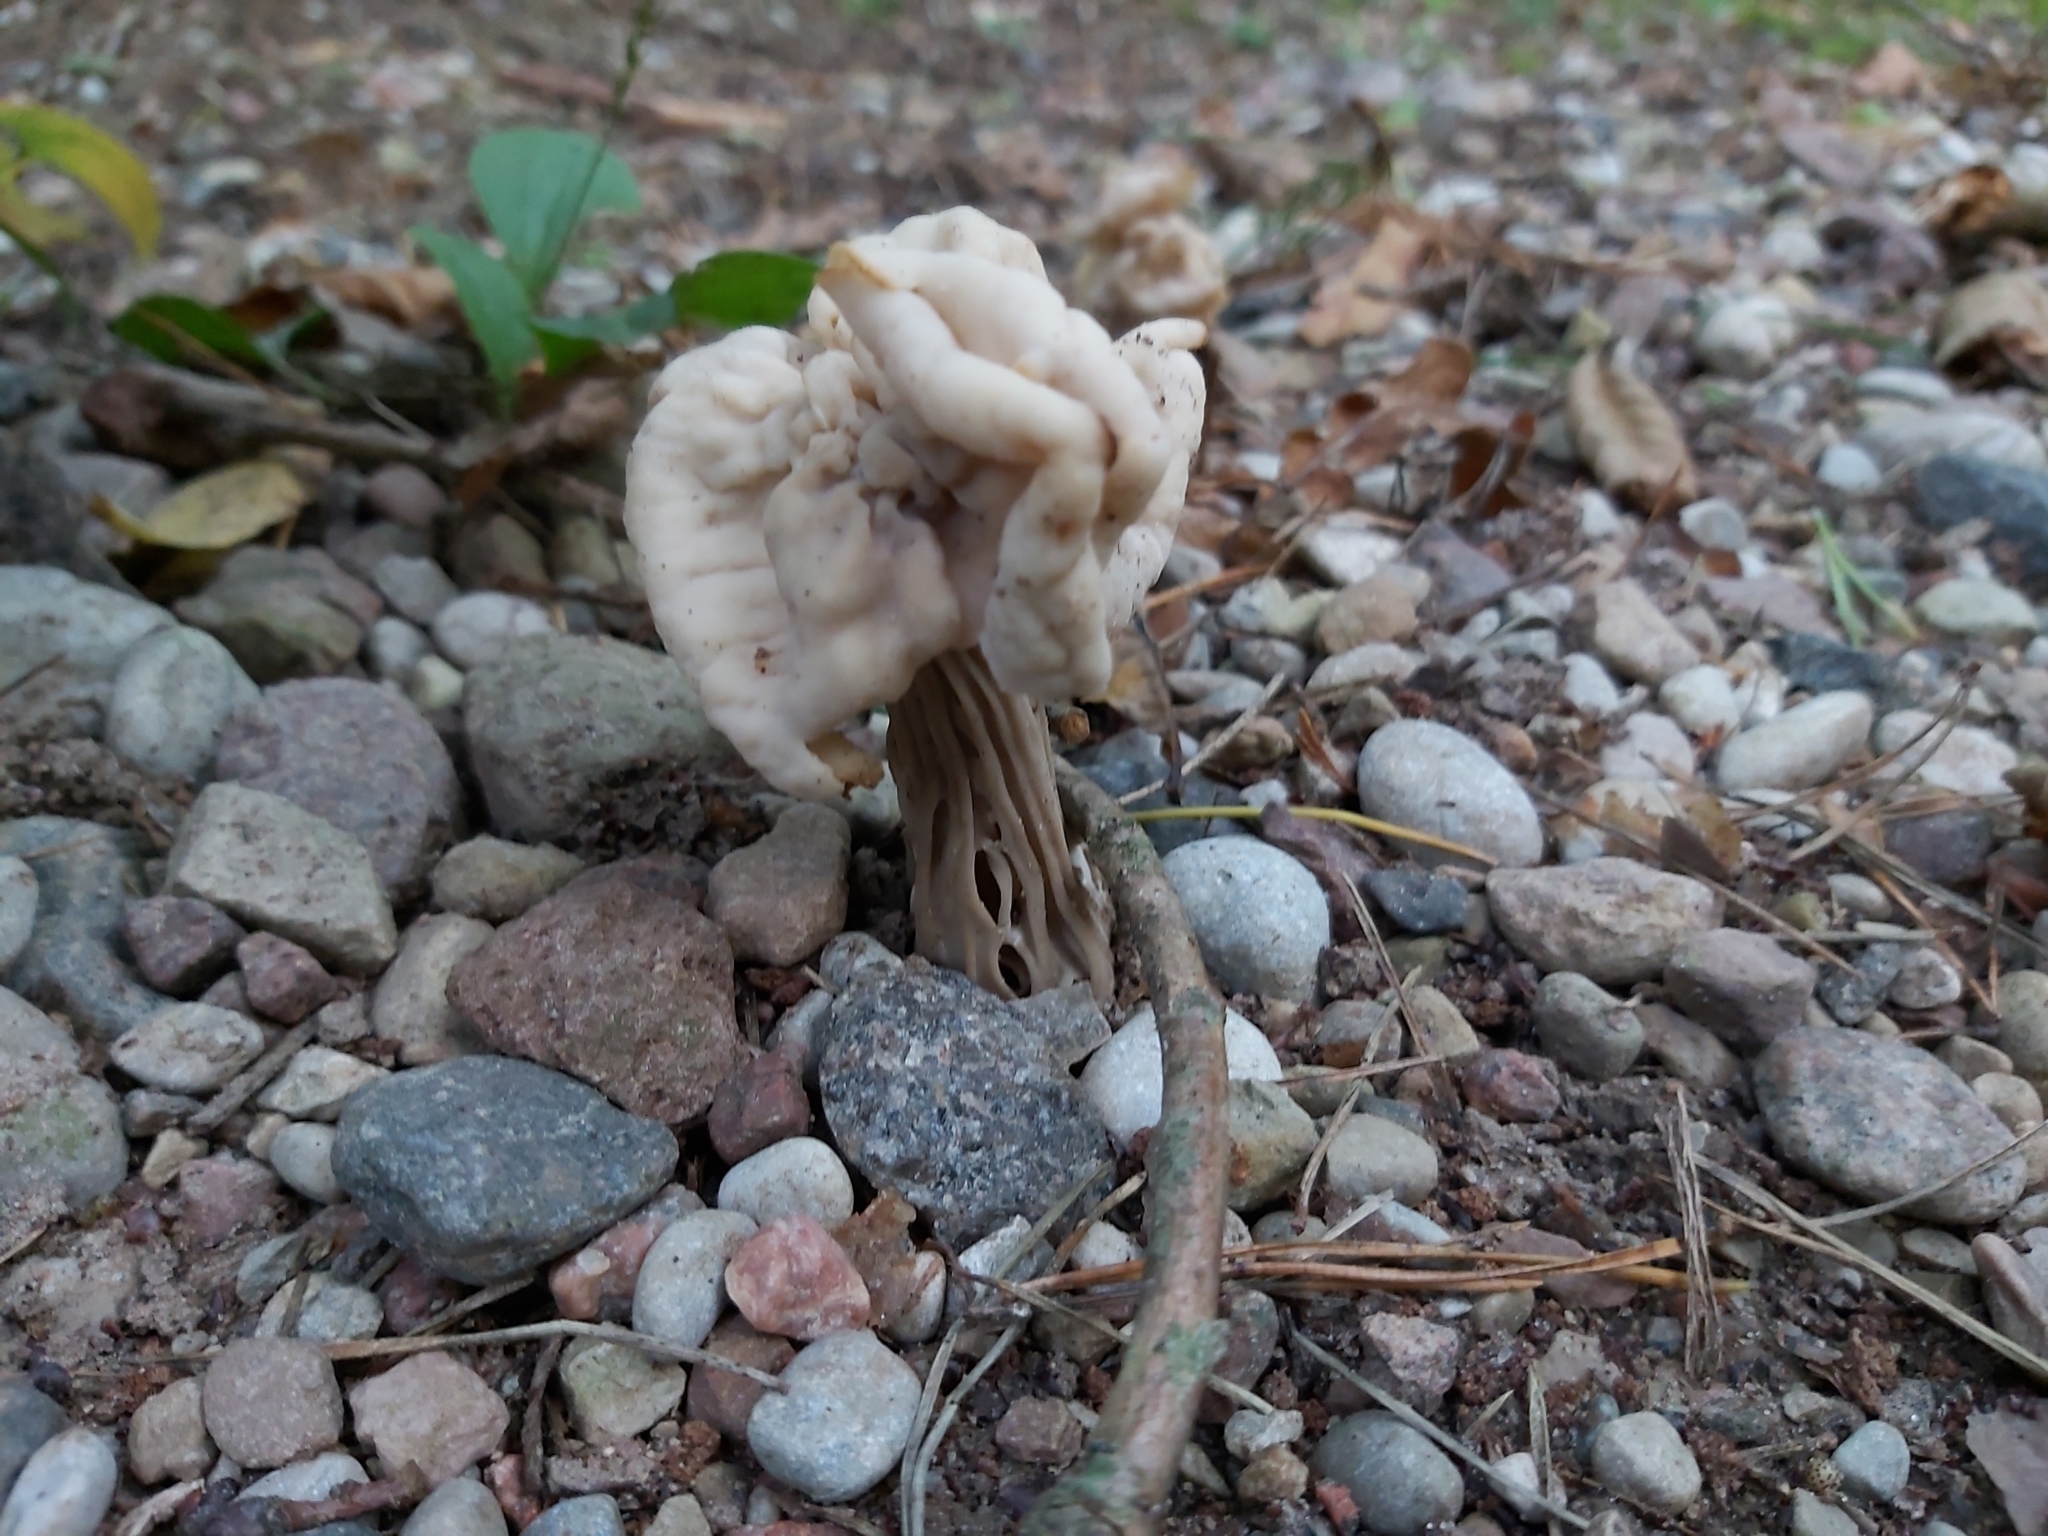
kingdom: Fungi
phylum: Ascomycota
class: Pezizomycetes
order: Pezizales
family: Helvellaceae
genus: Helvella
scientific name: Helvella crispa
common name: White saddle
